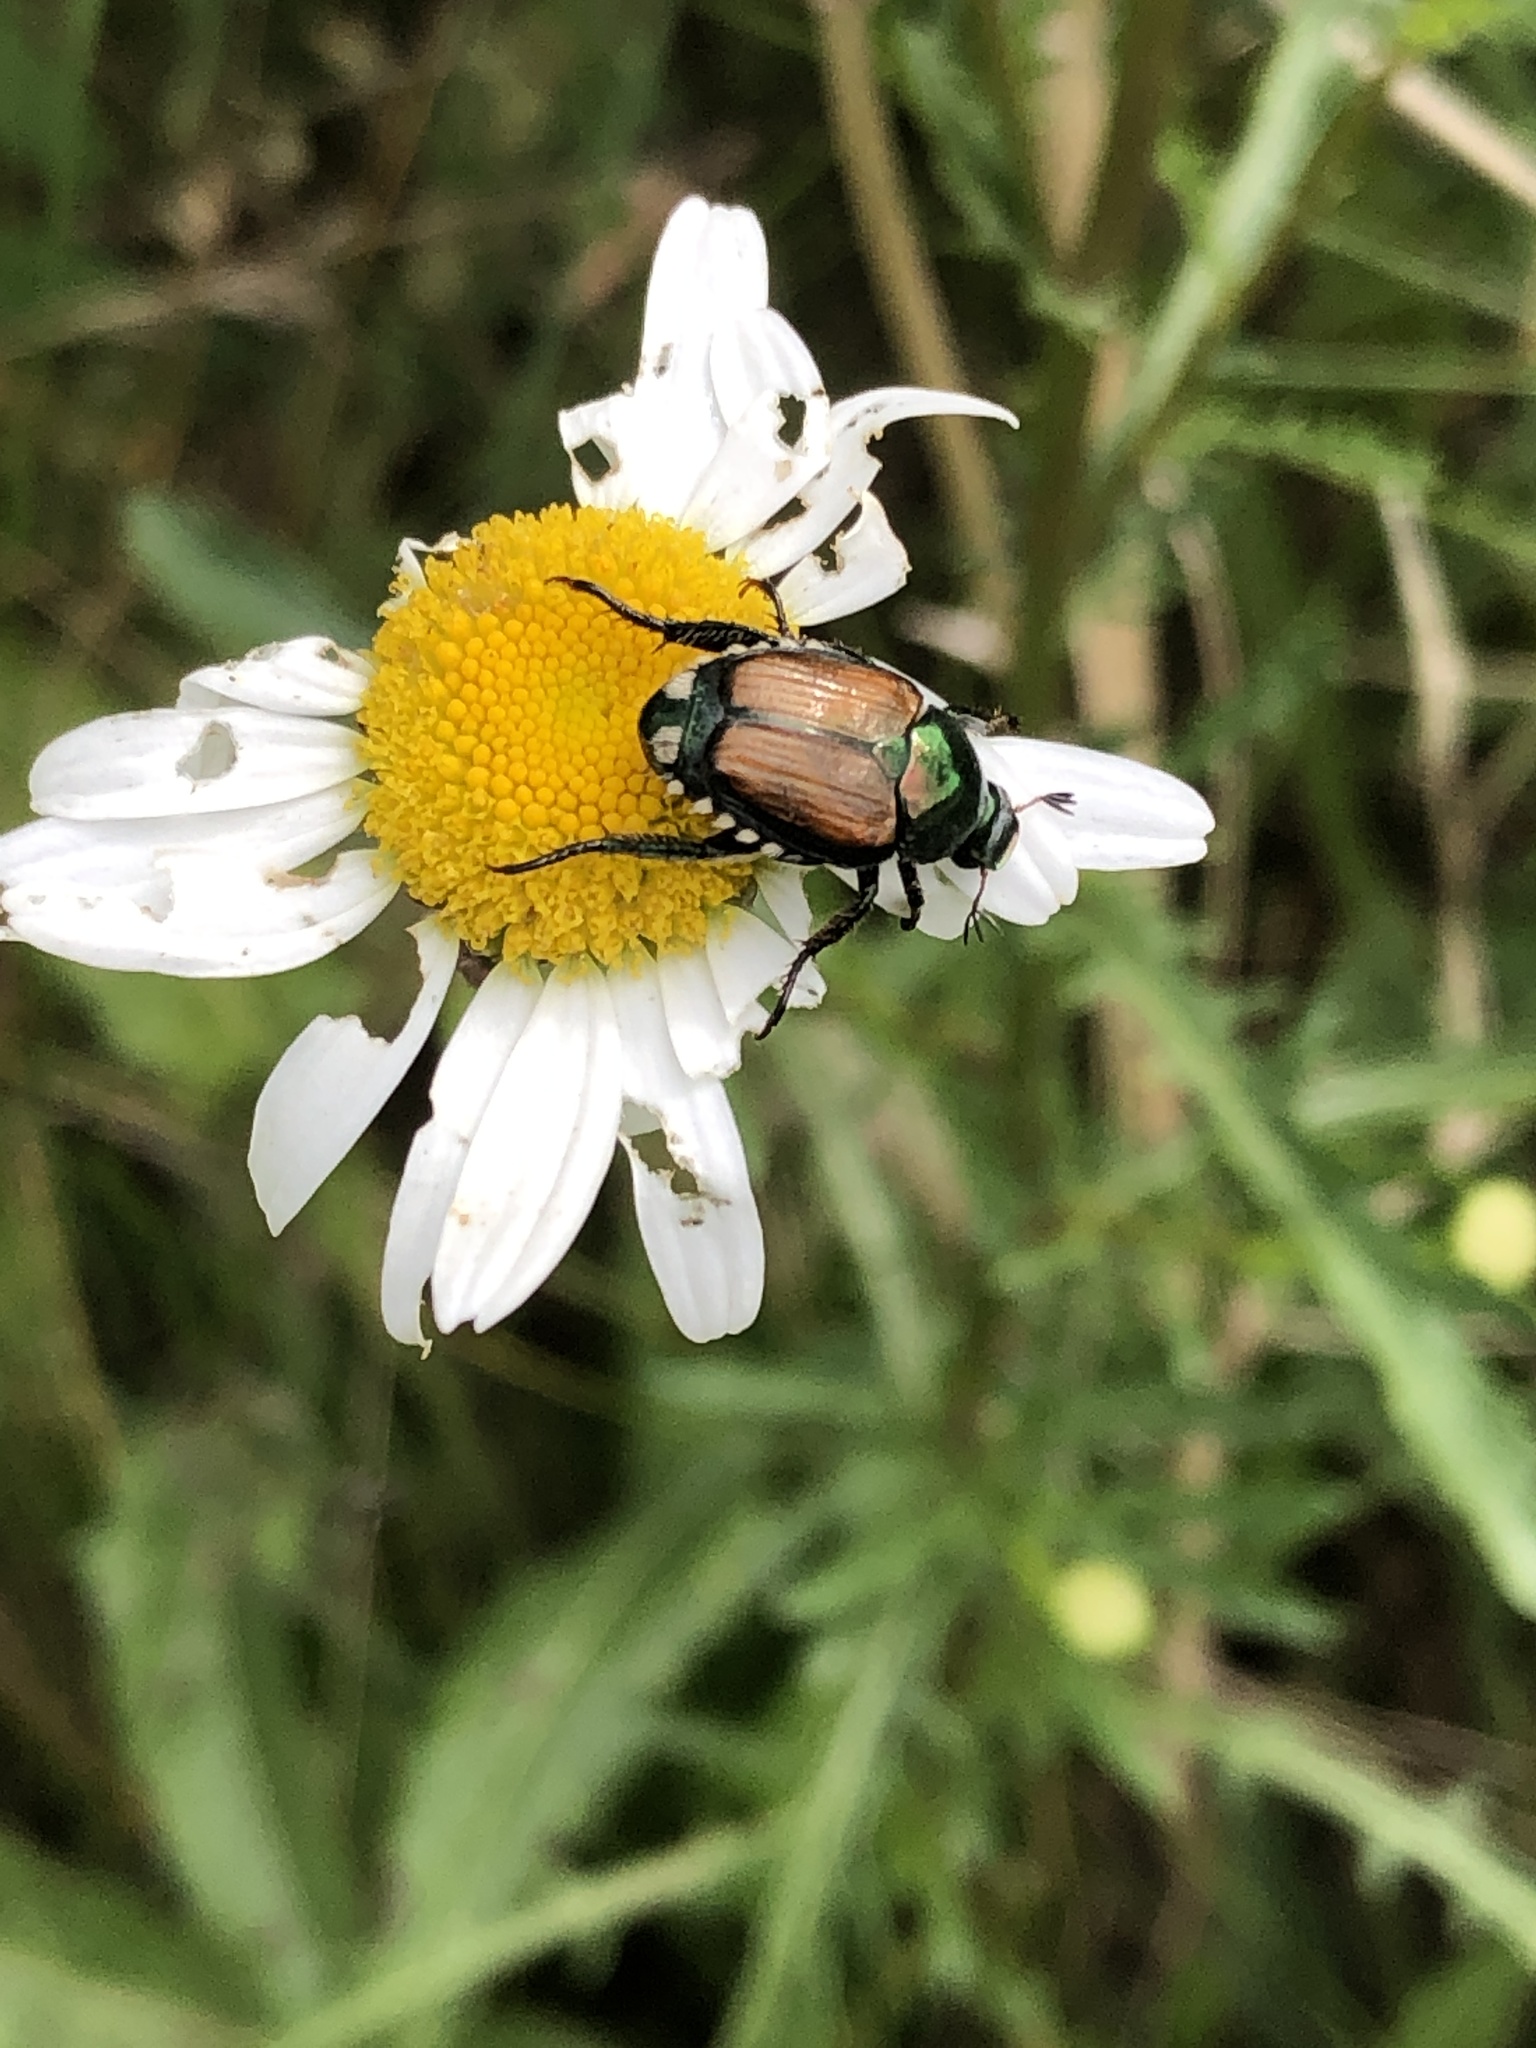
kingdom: Animalia
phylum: Arthropoda
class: Insecta
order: Coleoptera
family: Scarabaeidae
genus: Popillia
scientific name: Popillia japonica
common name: Japanese beetle
